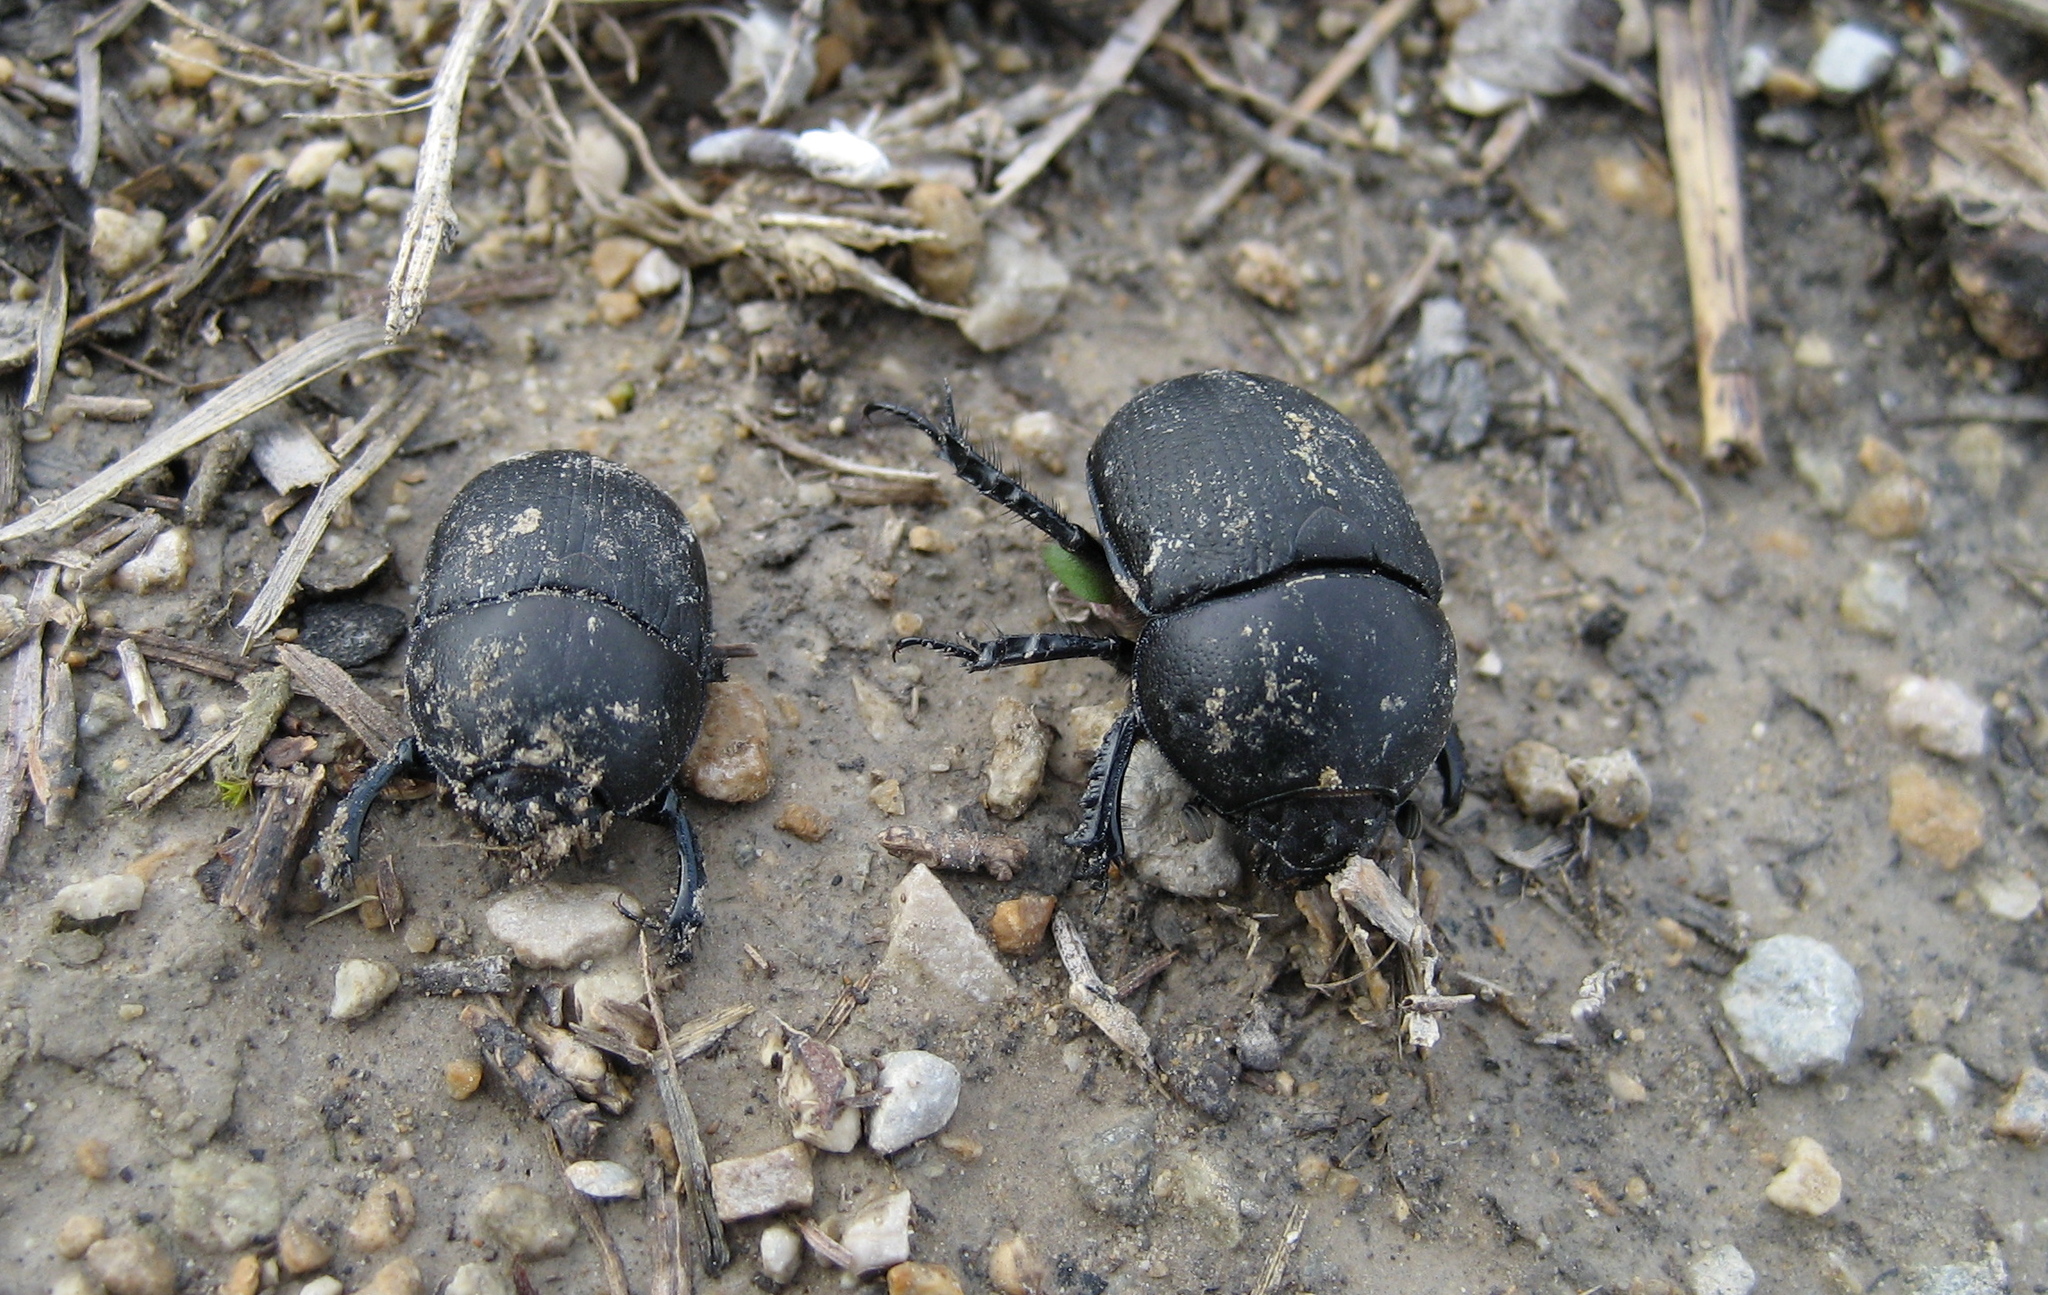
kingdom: Animalia
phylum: Arthropoda
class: Insecta
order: Coleoptera
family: Geotrupidae
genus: Geohowdenius
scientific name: Geohowdenius opacus
